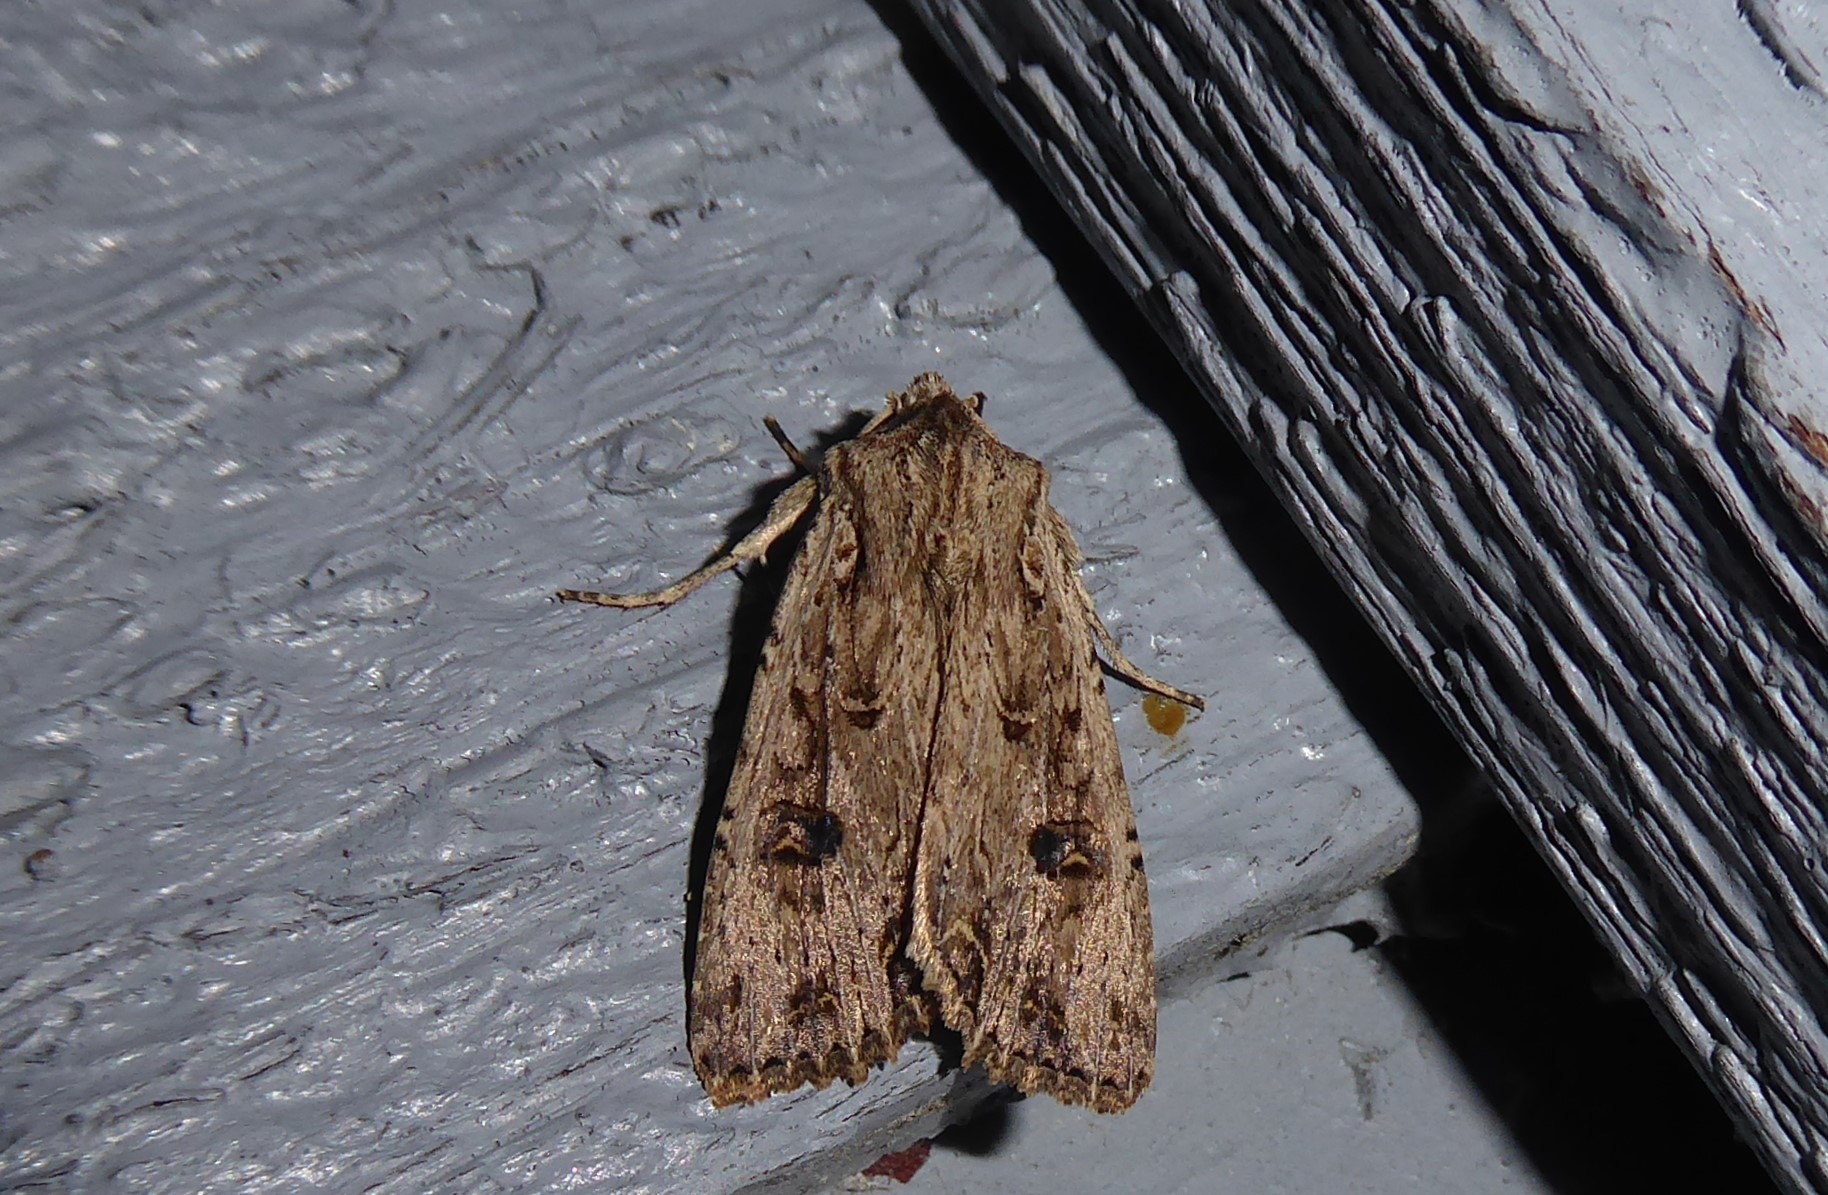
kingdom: Animalia
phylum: Arthropoda
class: Insecta
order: Lepidoptera
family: Noctuidae
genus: Ichneutica
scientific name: Ichneutica lignana
